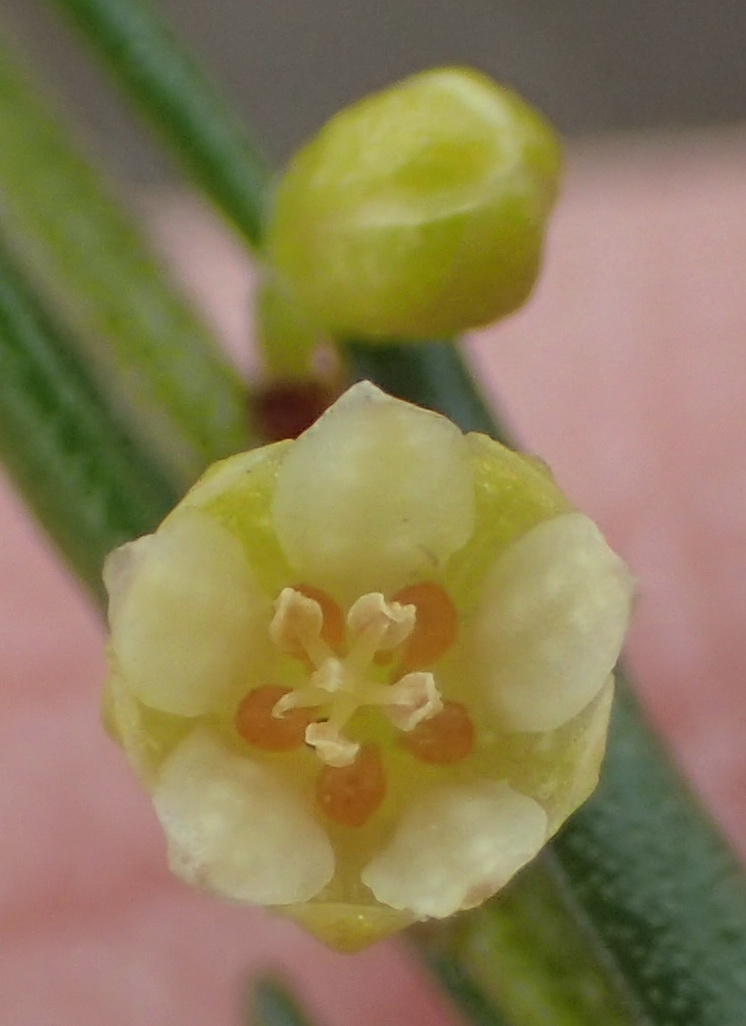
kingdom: Plantae
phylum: Tracheophyta
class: Magnoliopsida
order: Malpighiales
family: Peraceae
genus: Clutia
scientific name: Clutia ericoides
